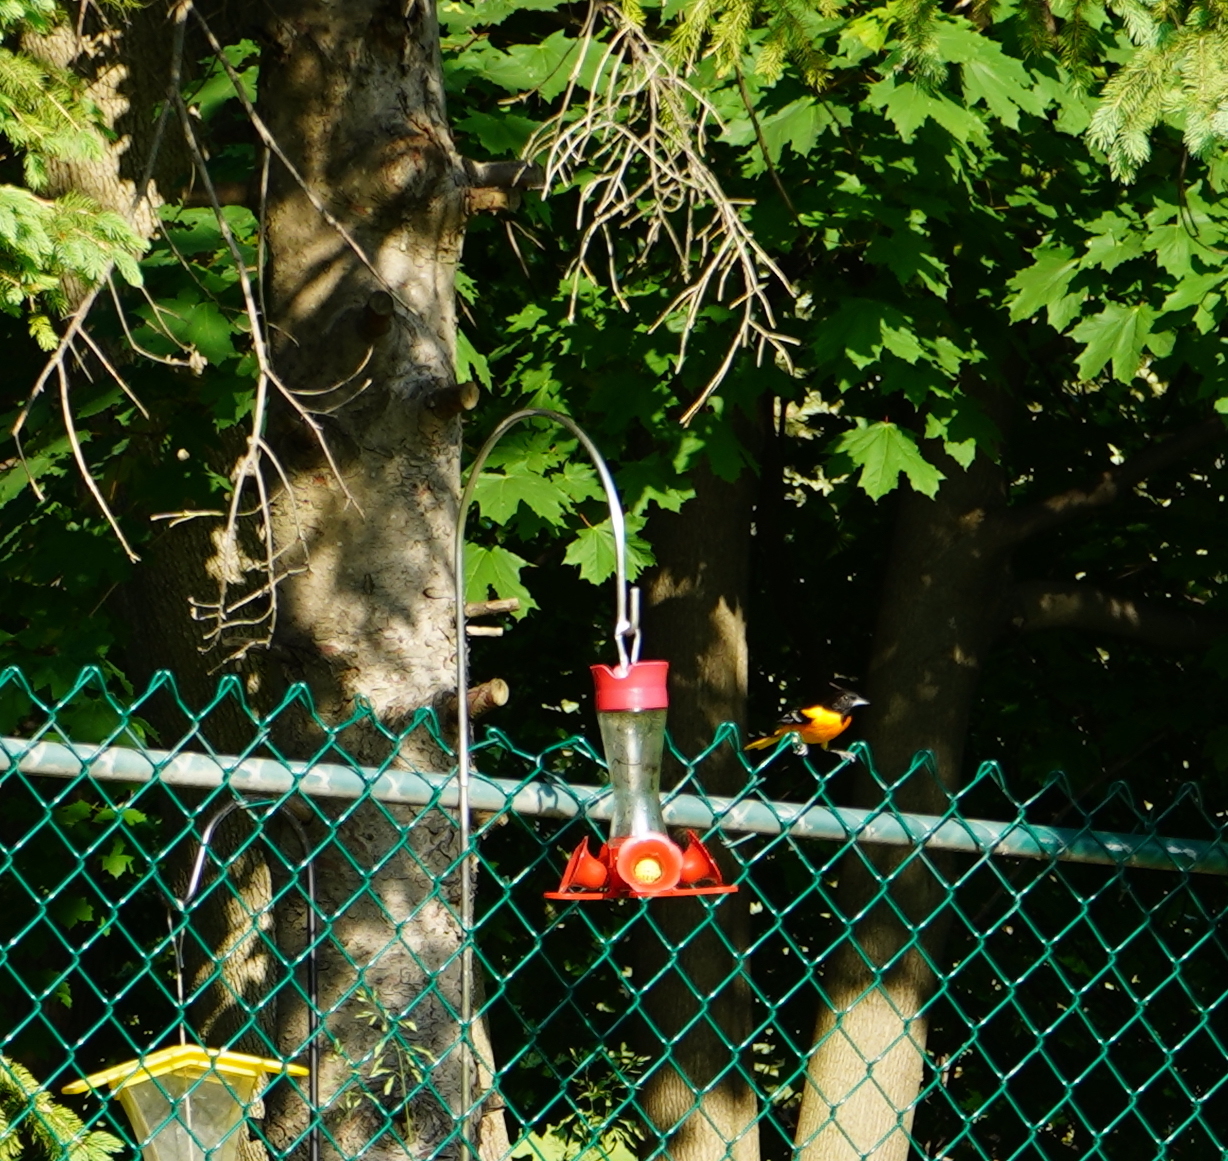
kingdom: Animalia
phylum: Chordata
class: Aves
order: Passeriformes
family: Icteridae
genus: Icterus
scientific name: Icterus galbula
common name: Baltimore oriole
